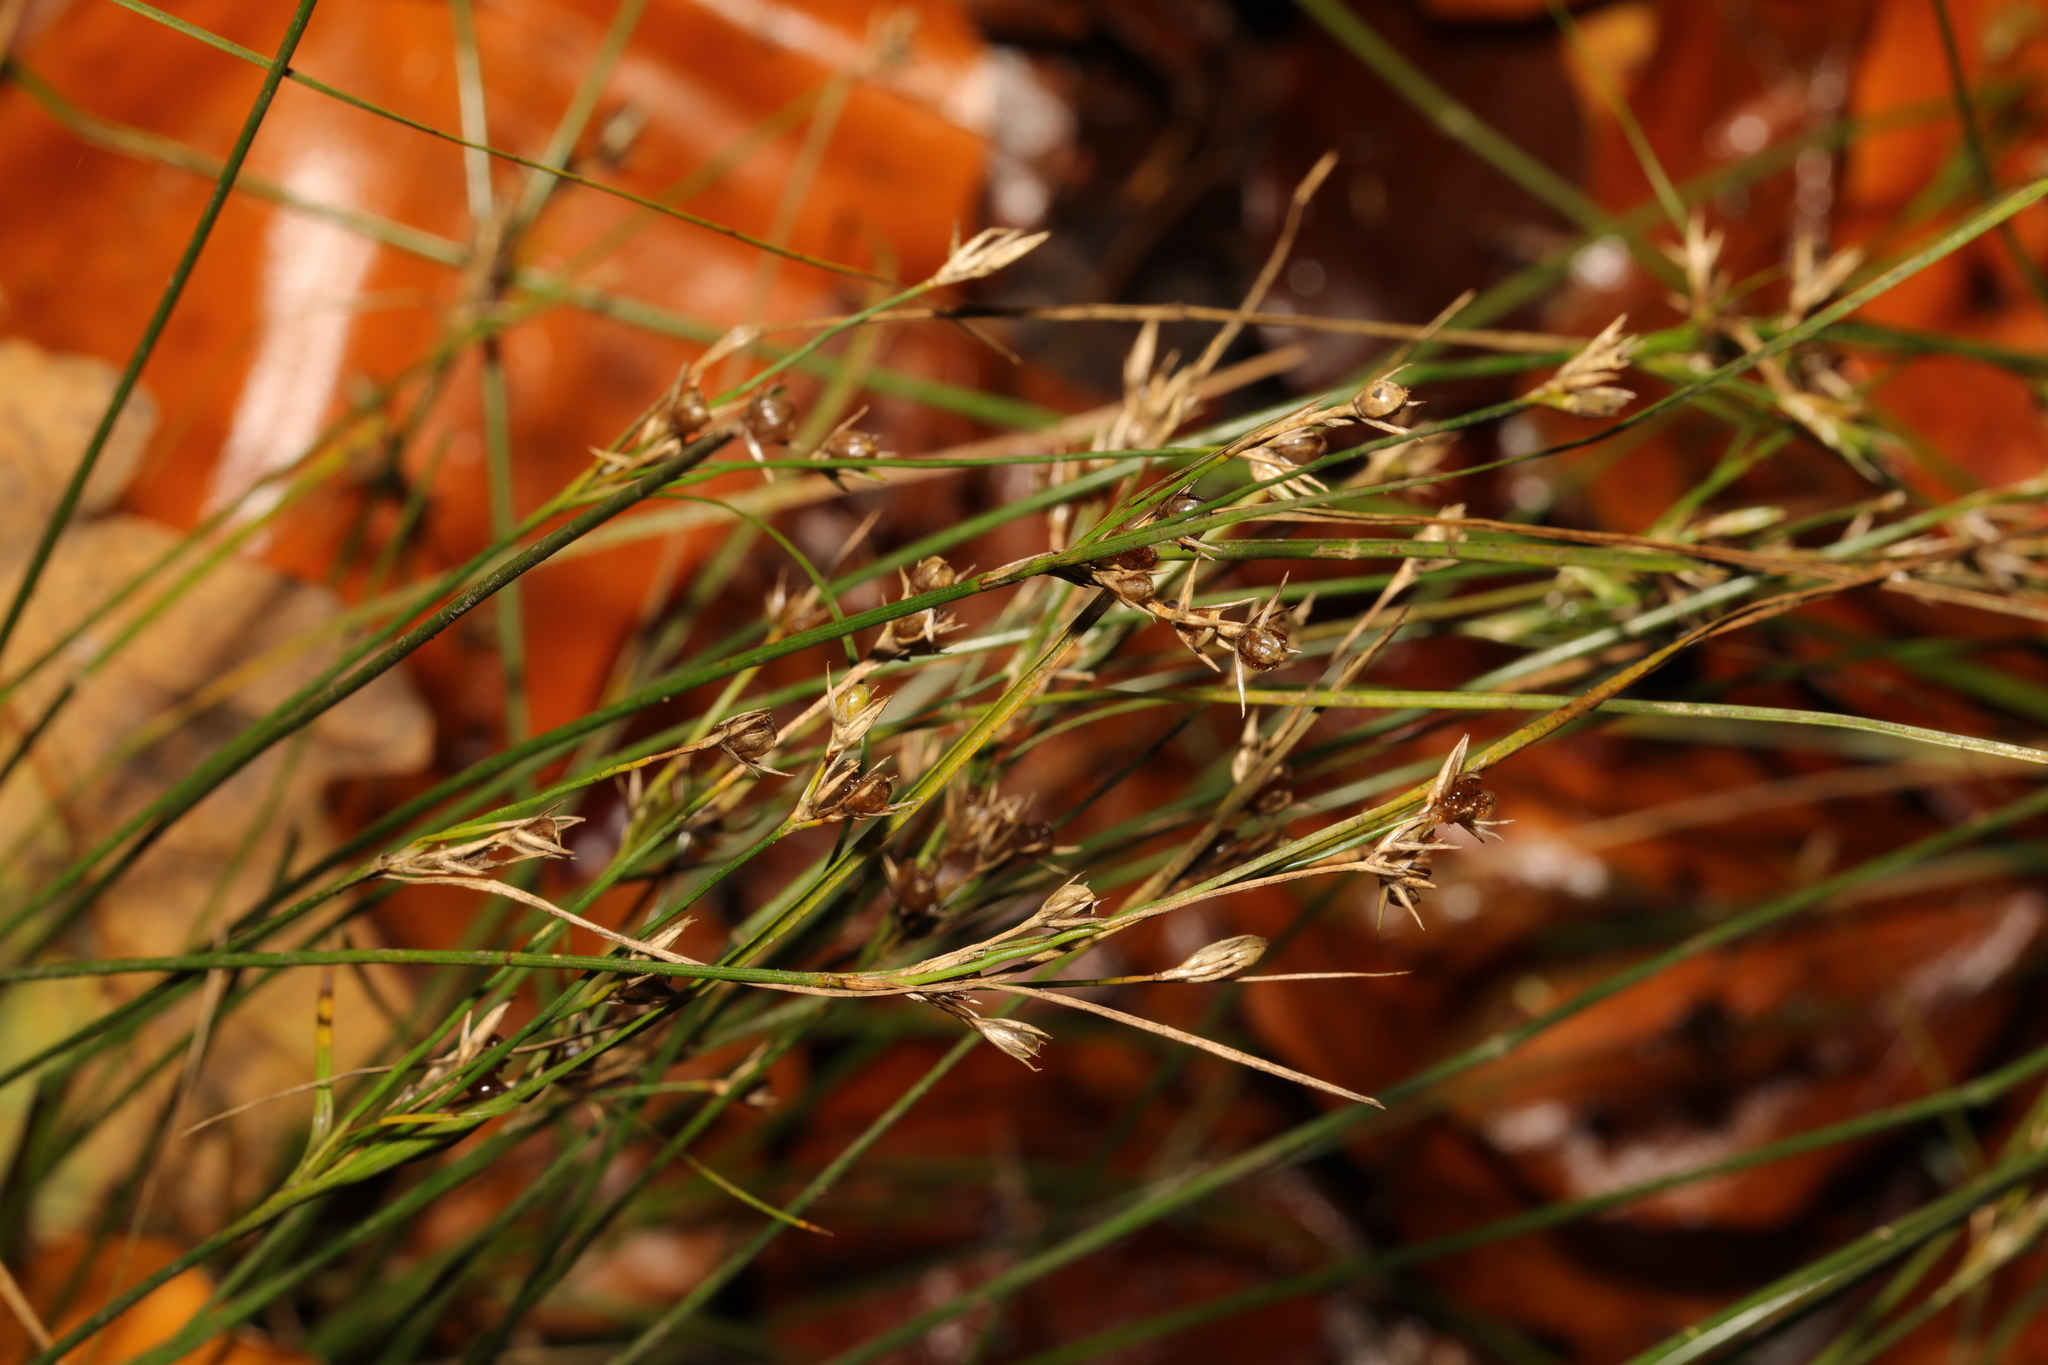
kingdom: Plantae
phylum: Tracheophyta
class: Liliopsida
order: Poales
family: Juncaceae
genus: Juncus
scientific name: Juncus tenuis
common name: Slender rush
